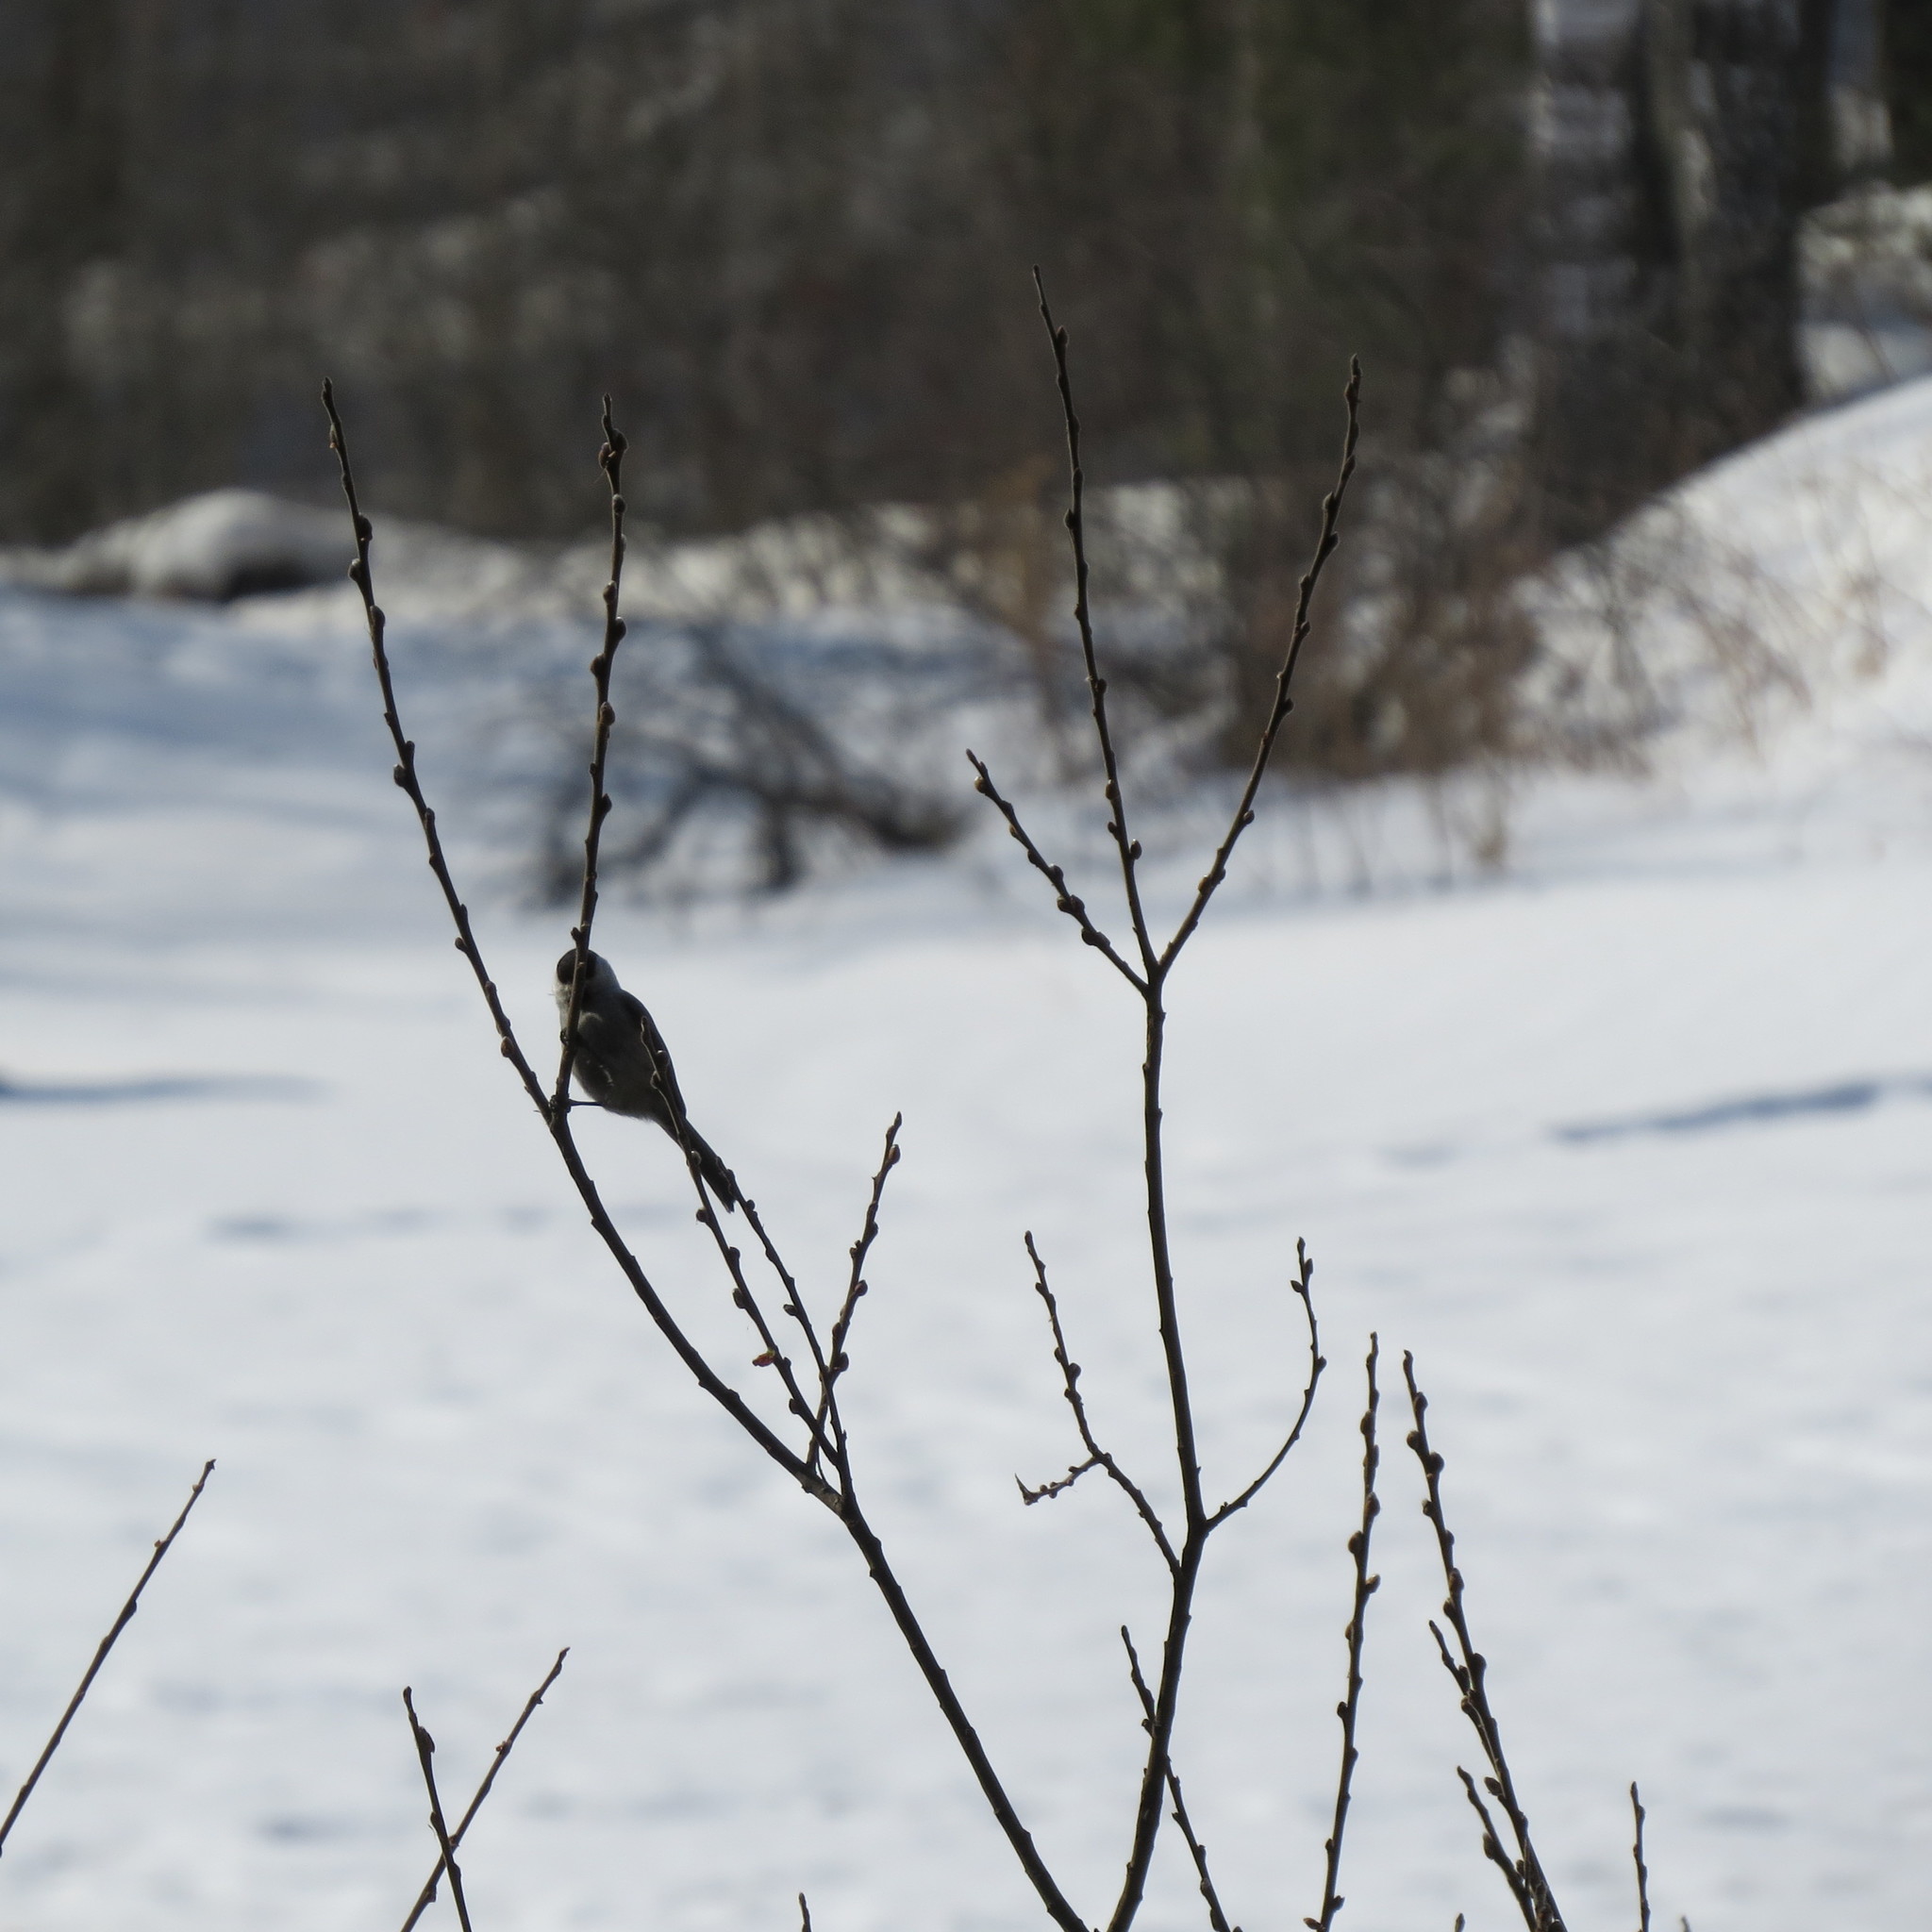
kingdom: Animalia
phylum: Chordata
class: Aves
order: Passeriformes
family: Paridae
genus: Poecile
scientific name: Poecile montanus
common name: Willow tit
